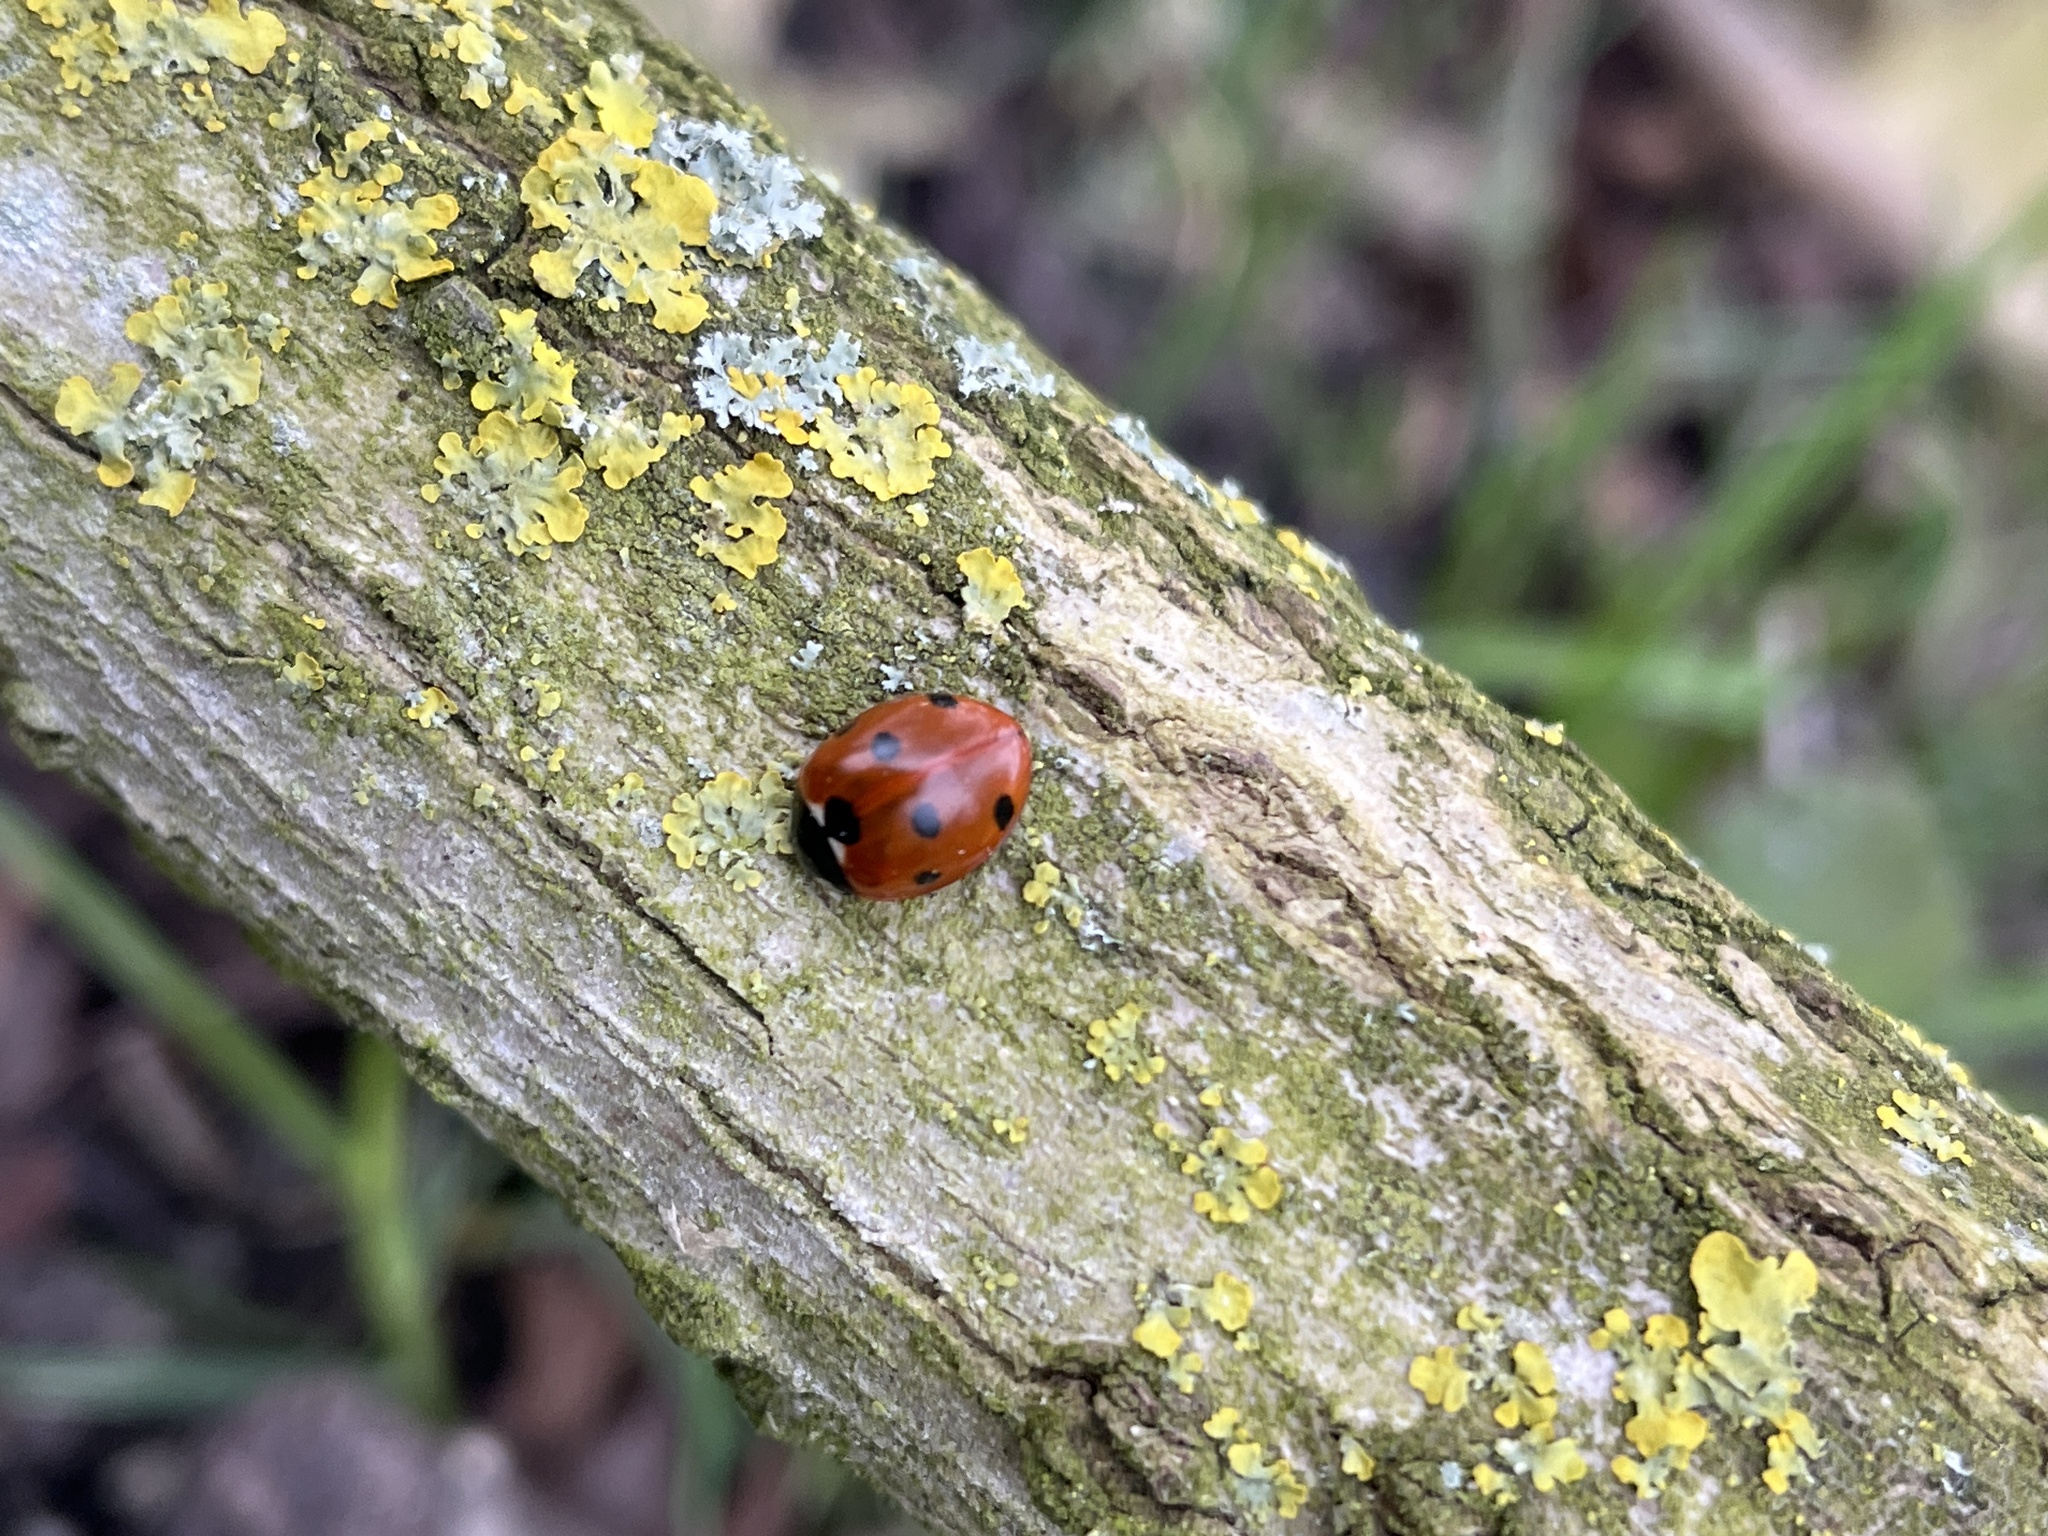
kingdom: Animalia
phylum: Arthropoda
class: Insecta
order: Coleoptera
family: Coccinellidae
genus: Coccinella
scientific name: Coccinella septempunctata
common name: Sevenspotted lady beetle
